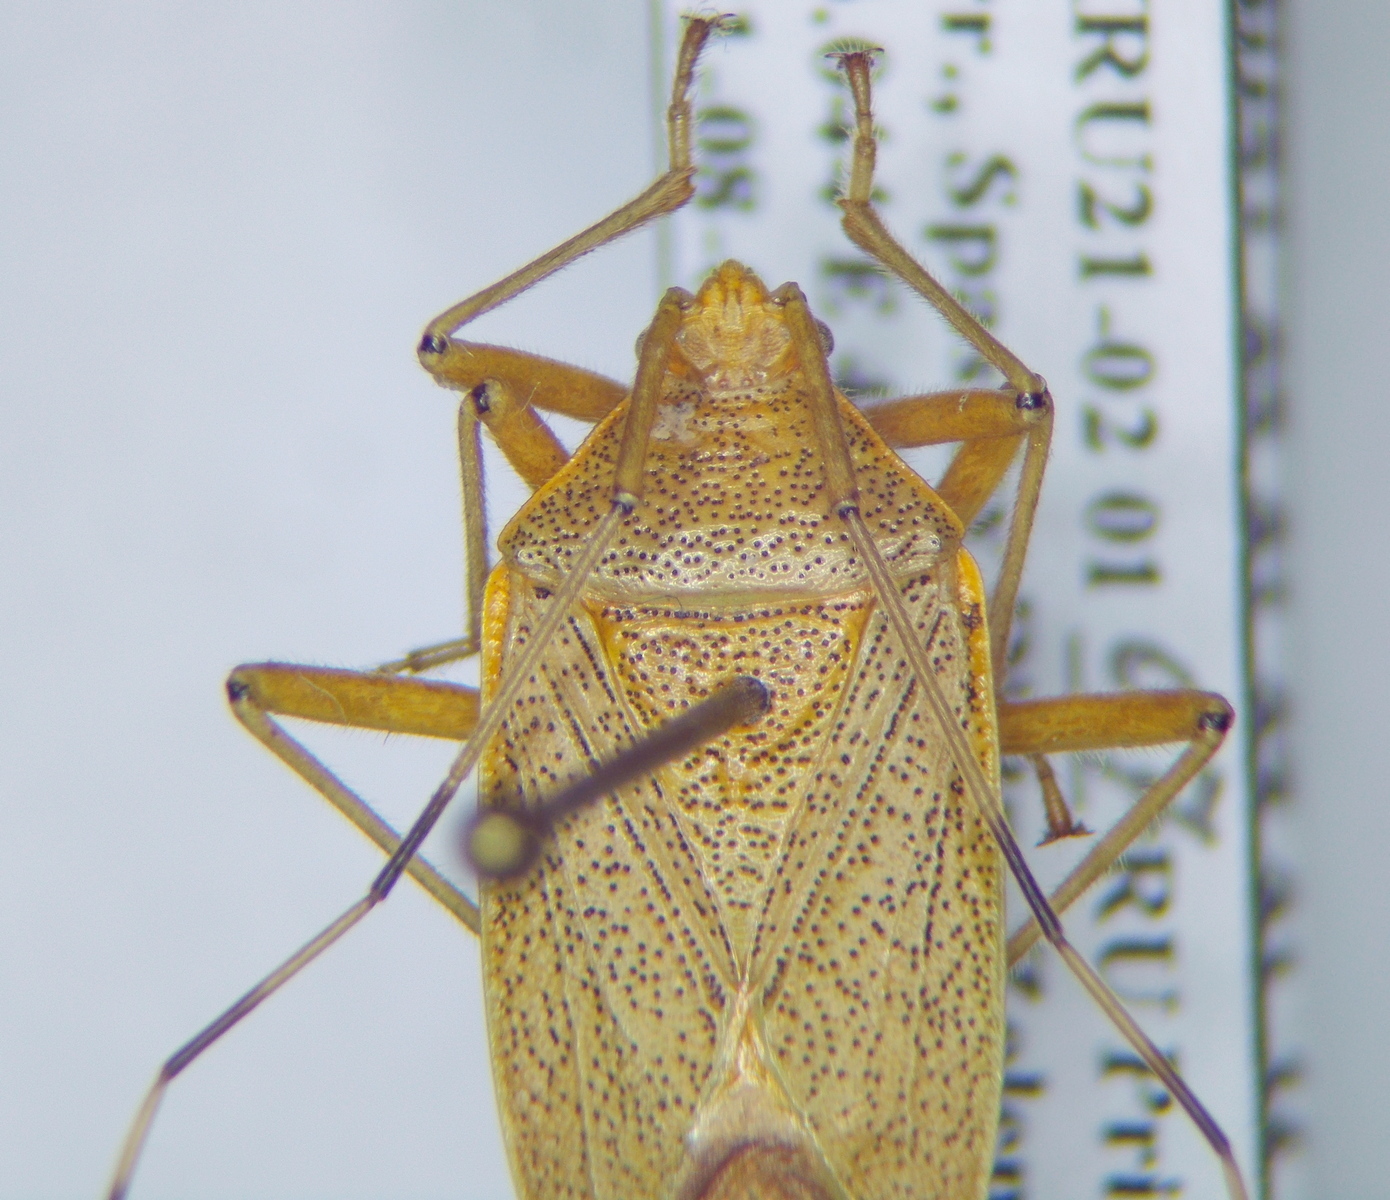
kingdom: Animalia
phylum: Arthropoda
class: Insecta
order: Hemiptera
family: Urostylididae
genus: Urostylis
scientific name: Urostylis
